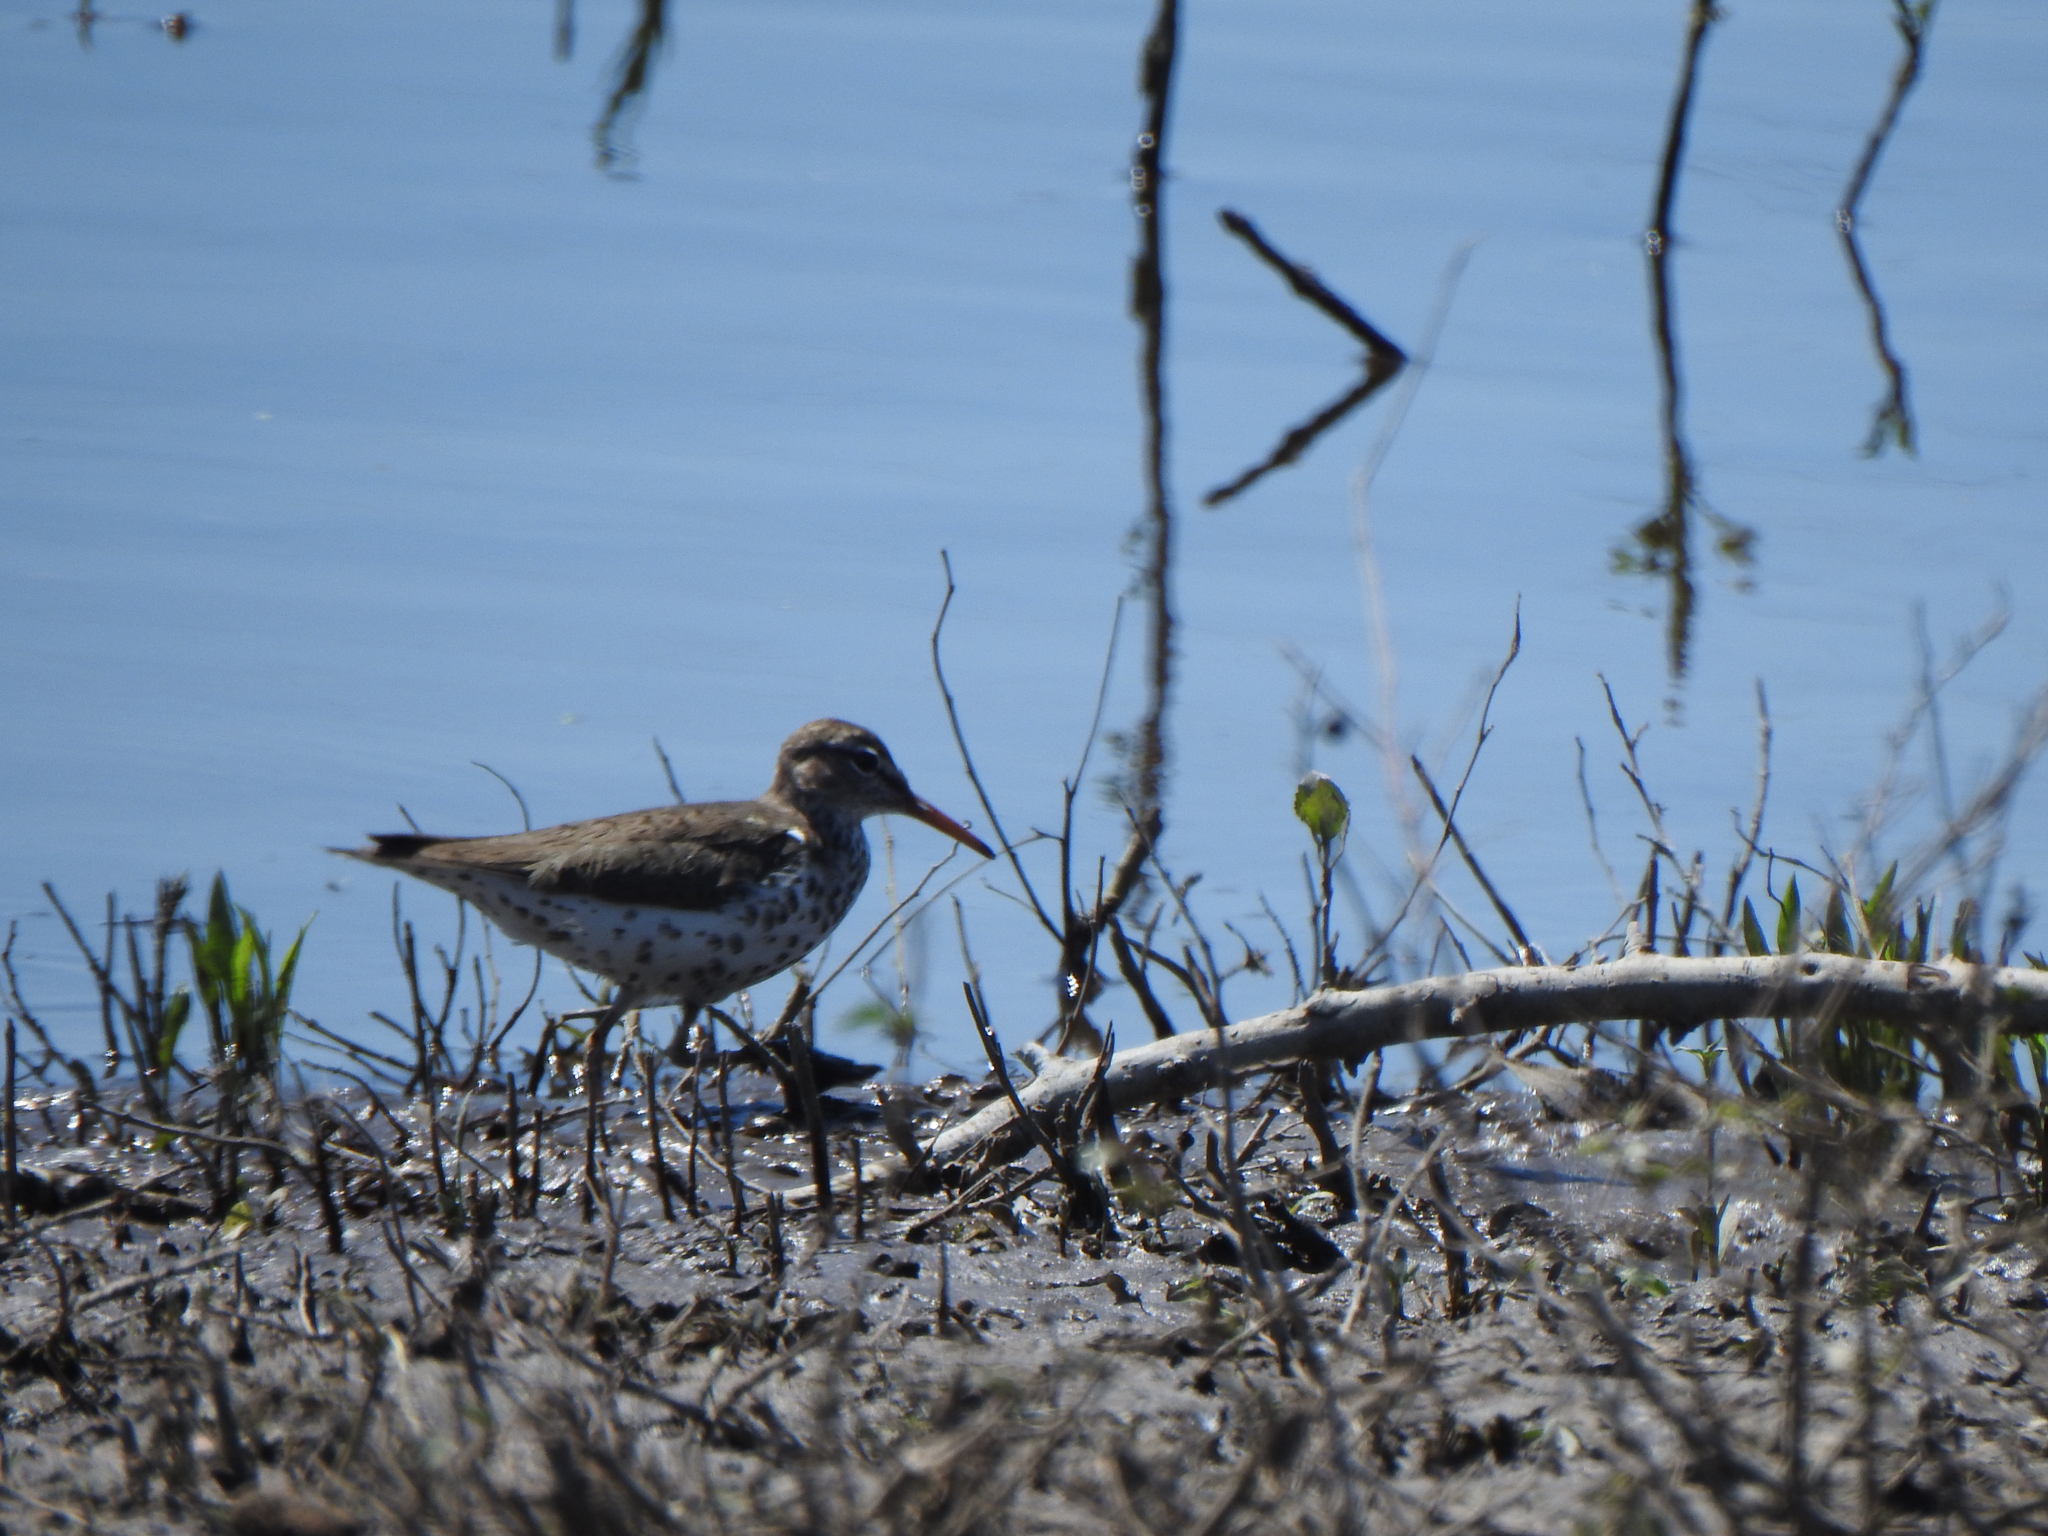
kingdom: Animalia
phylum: Chordata
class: Aves
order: Charadriiformes
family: Scolopacidae
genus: Actitis
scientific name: Actitis macularius
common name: Spotted sandpiper
